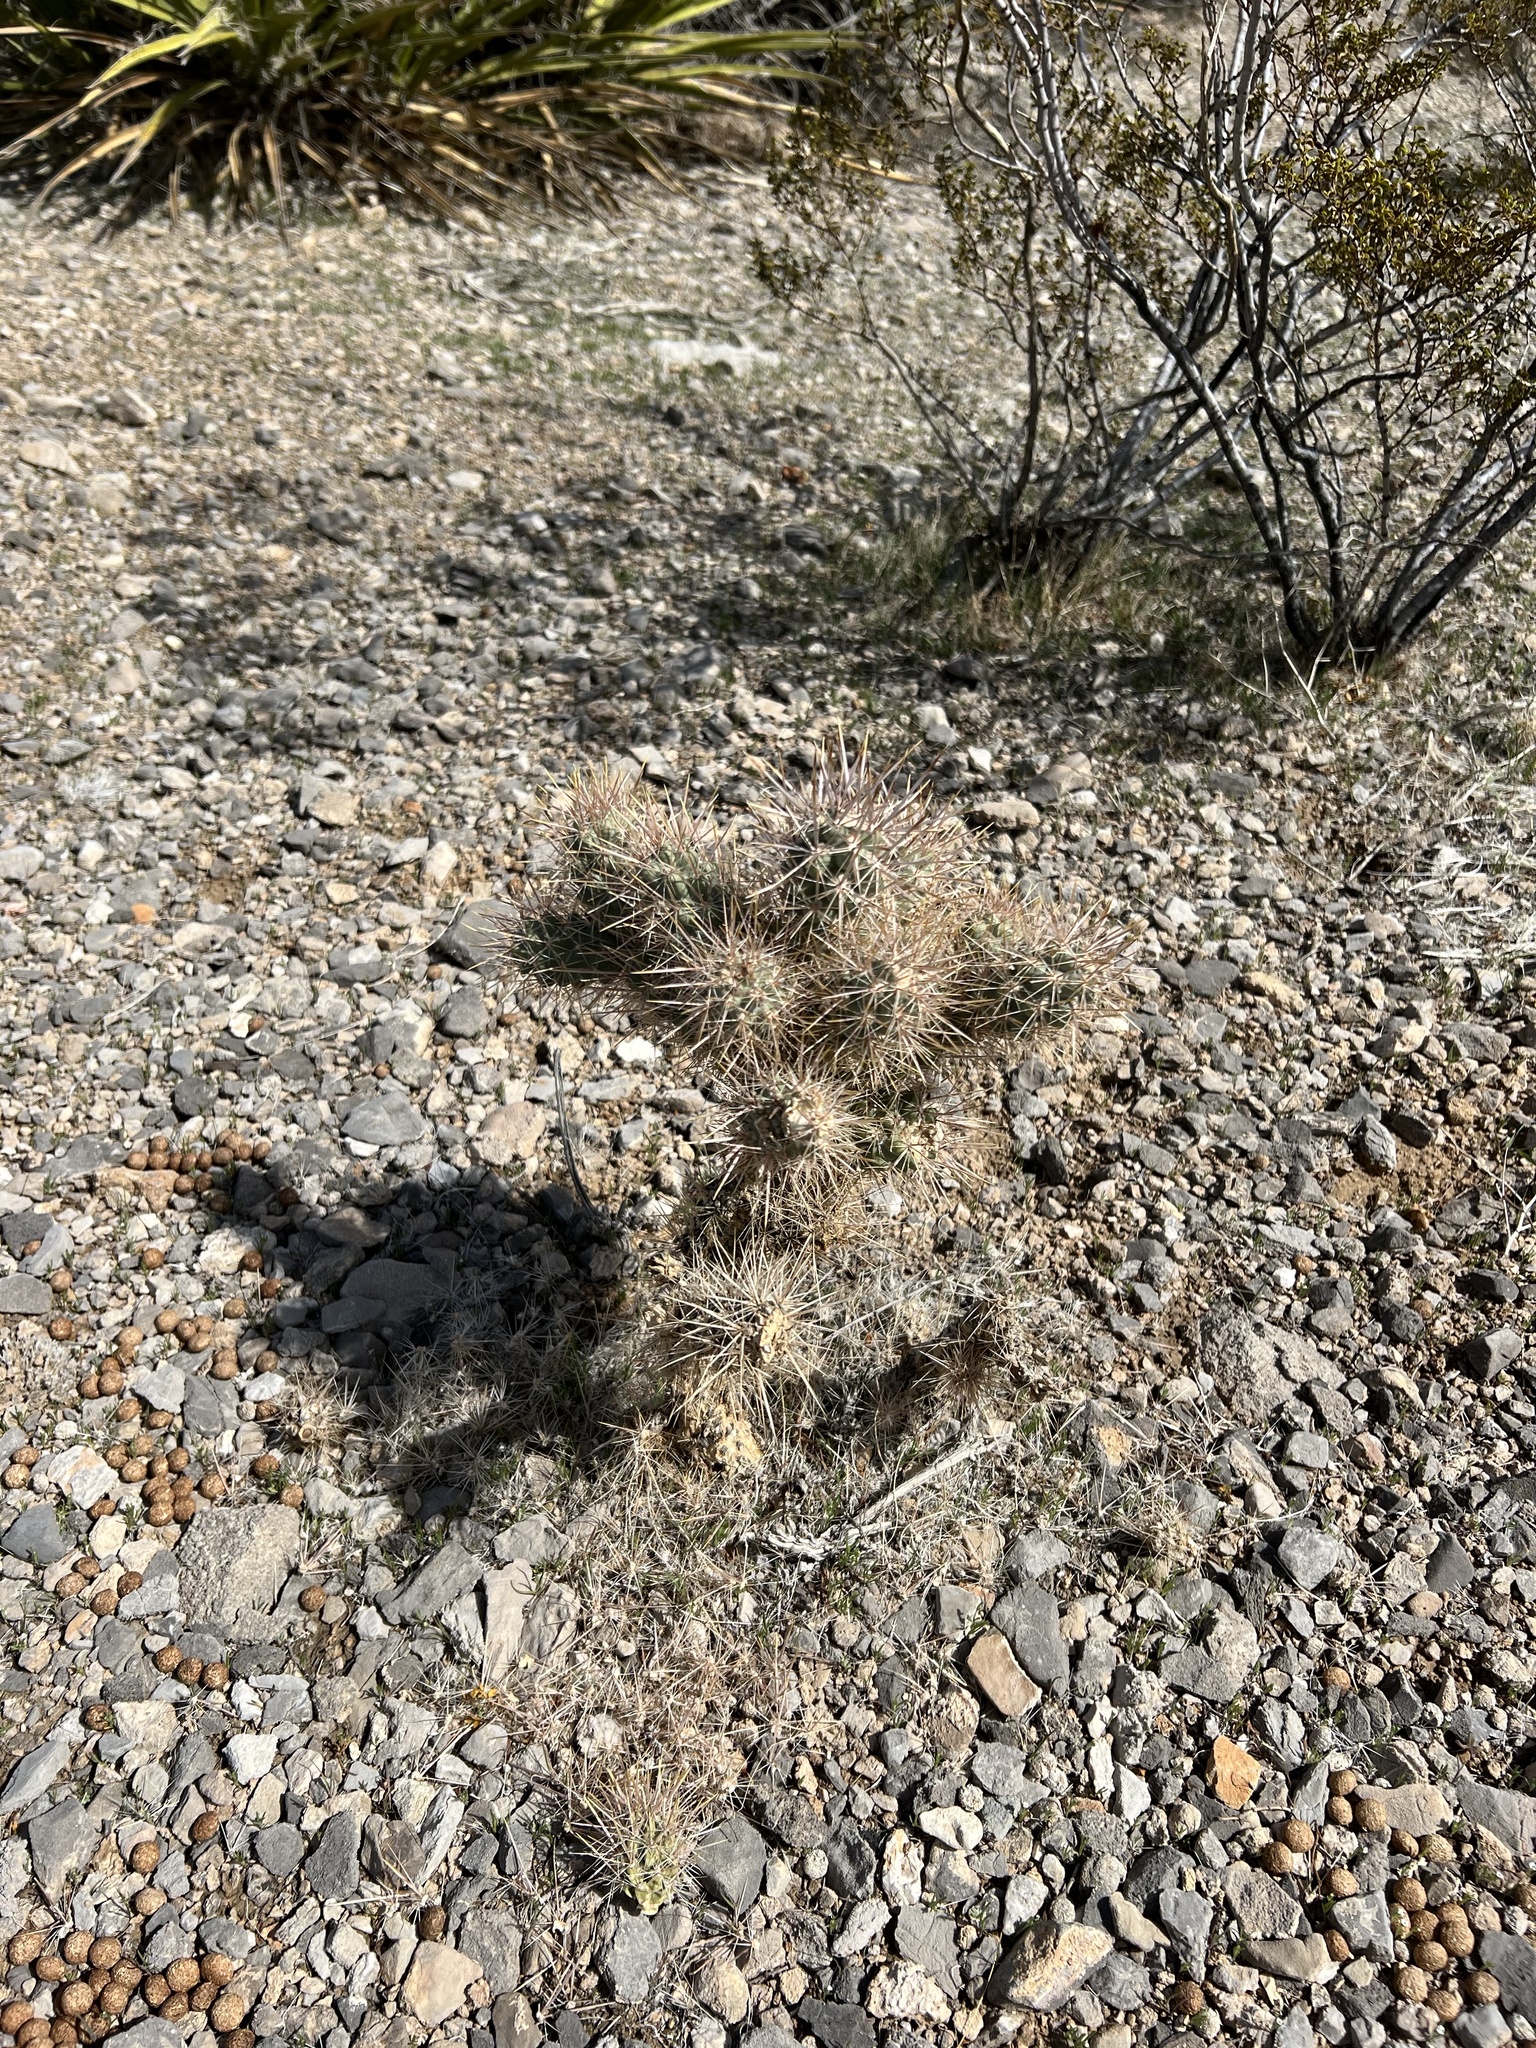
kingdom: Plantae
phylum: Tracheophyta
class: Magnoliopsida
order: Caryophyllales
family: Cactaceae
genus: Cylindropuntia
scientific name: Cylindropuntia echinocarpa
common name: Ground cholla
